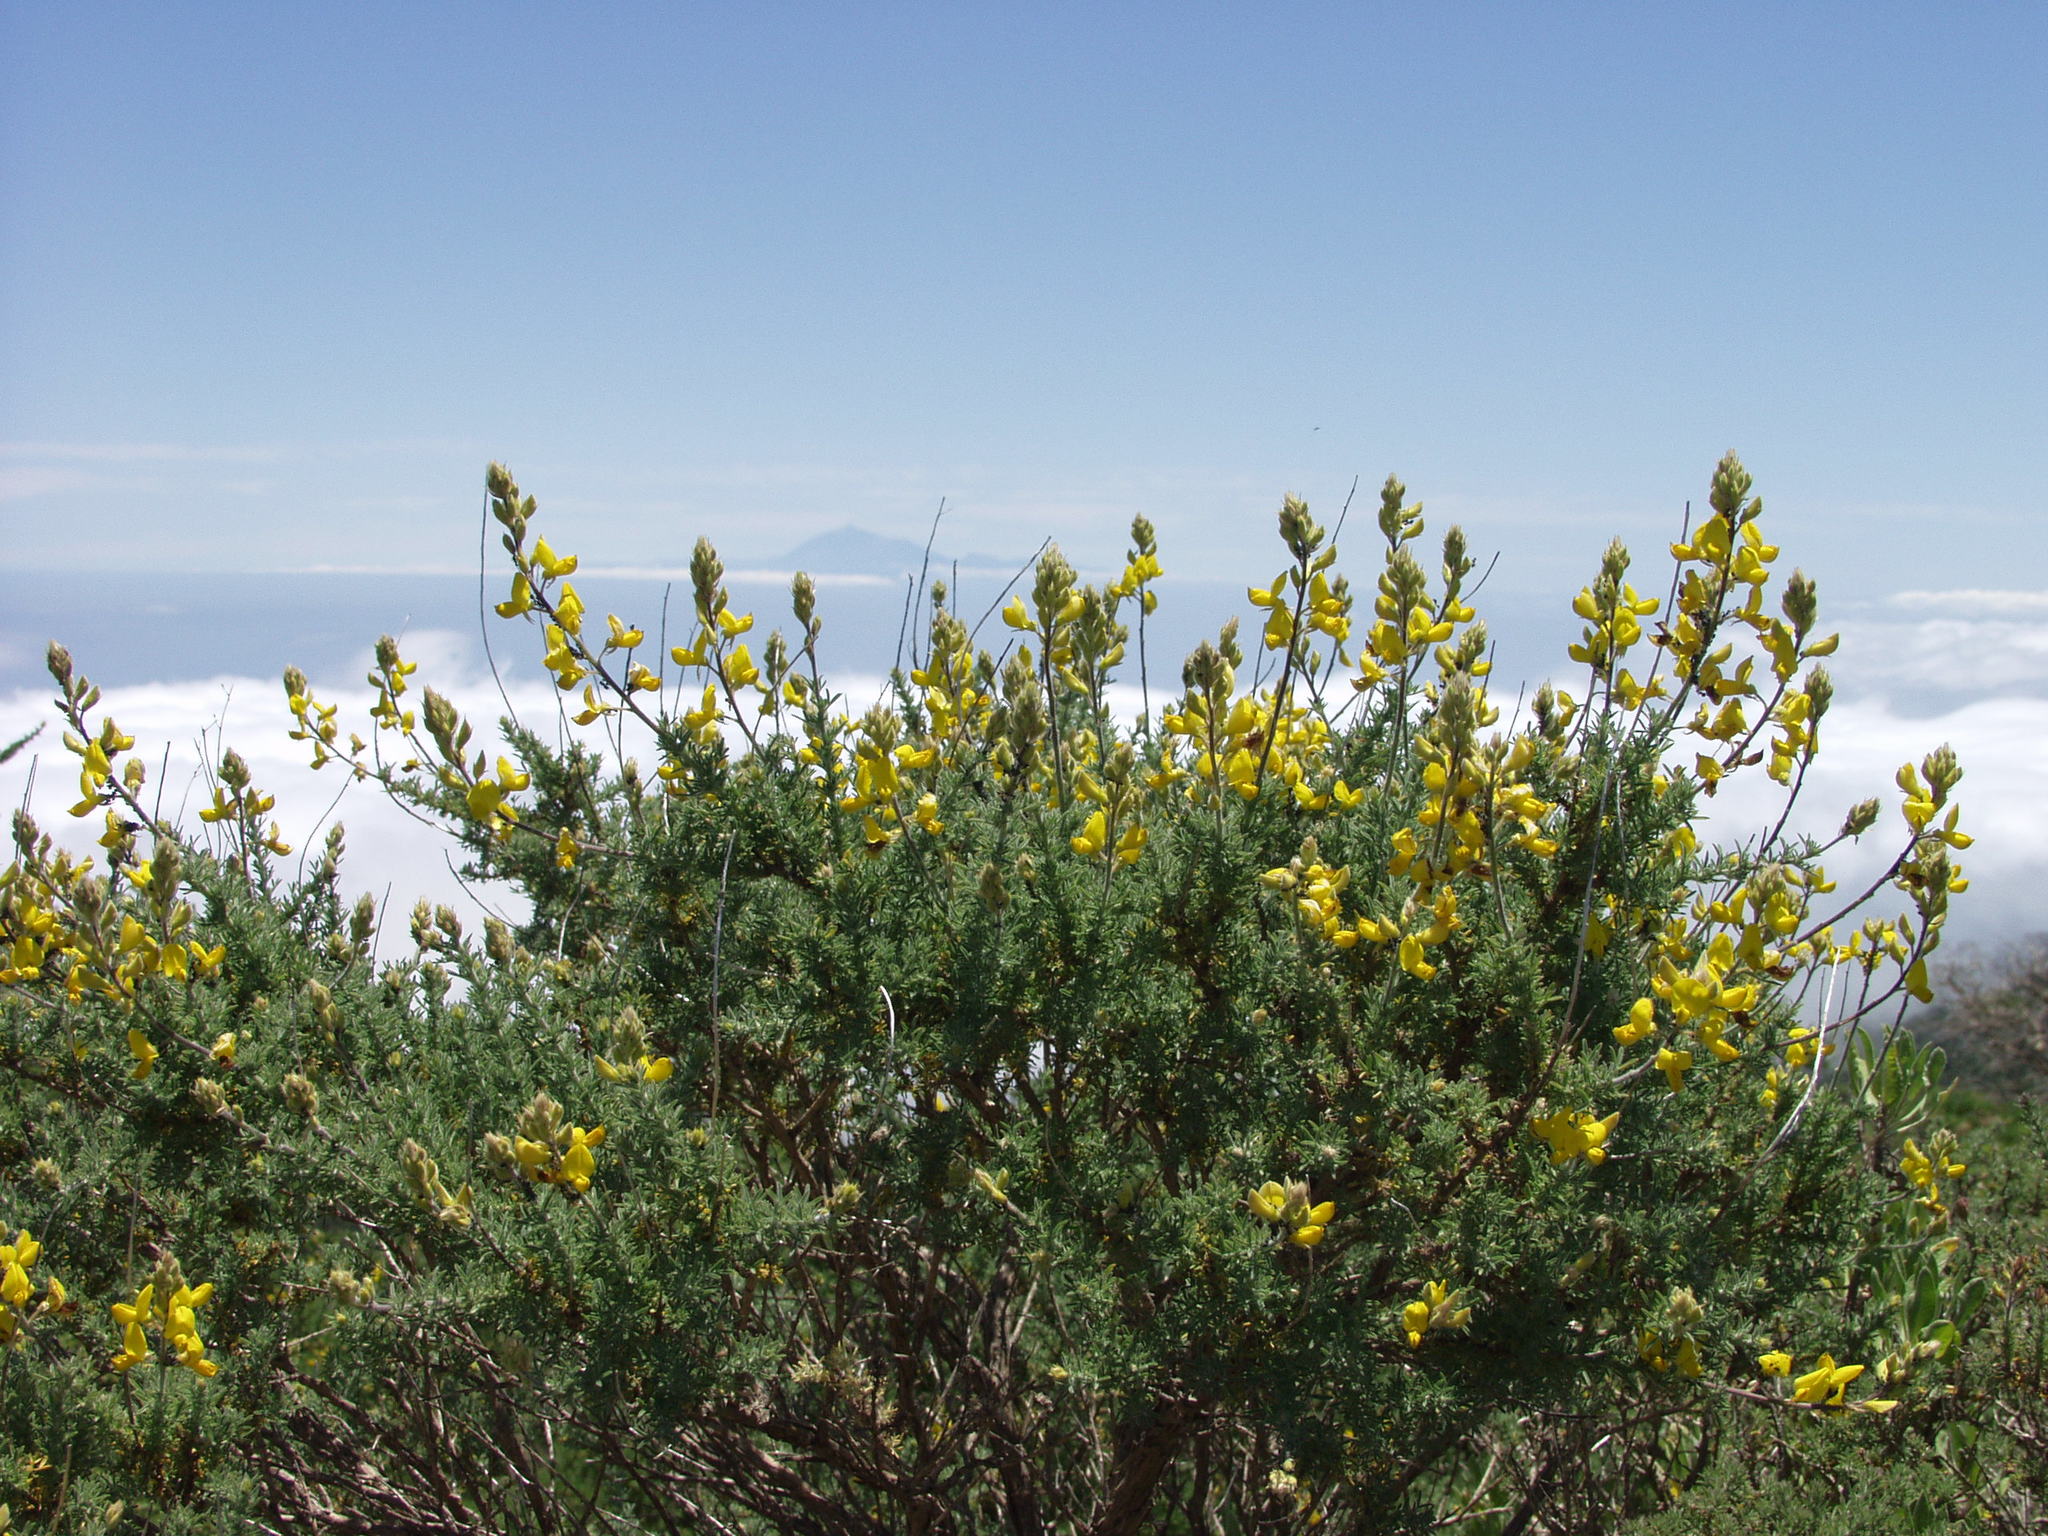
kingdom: Plantae
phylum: Tracheophyta
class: Magnoliopsida
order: Fabales
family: Fabaceae
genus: Adenocarpus
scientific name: Adenocarpus foliolosus
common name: Canary island flatpod
